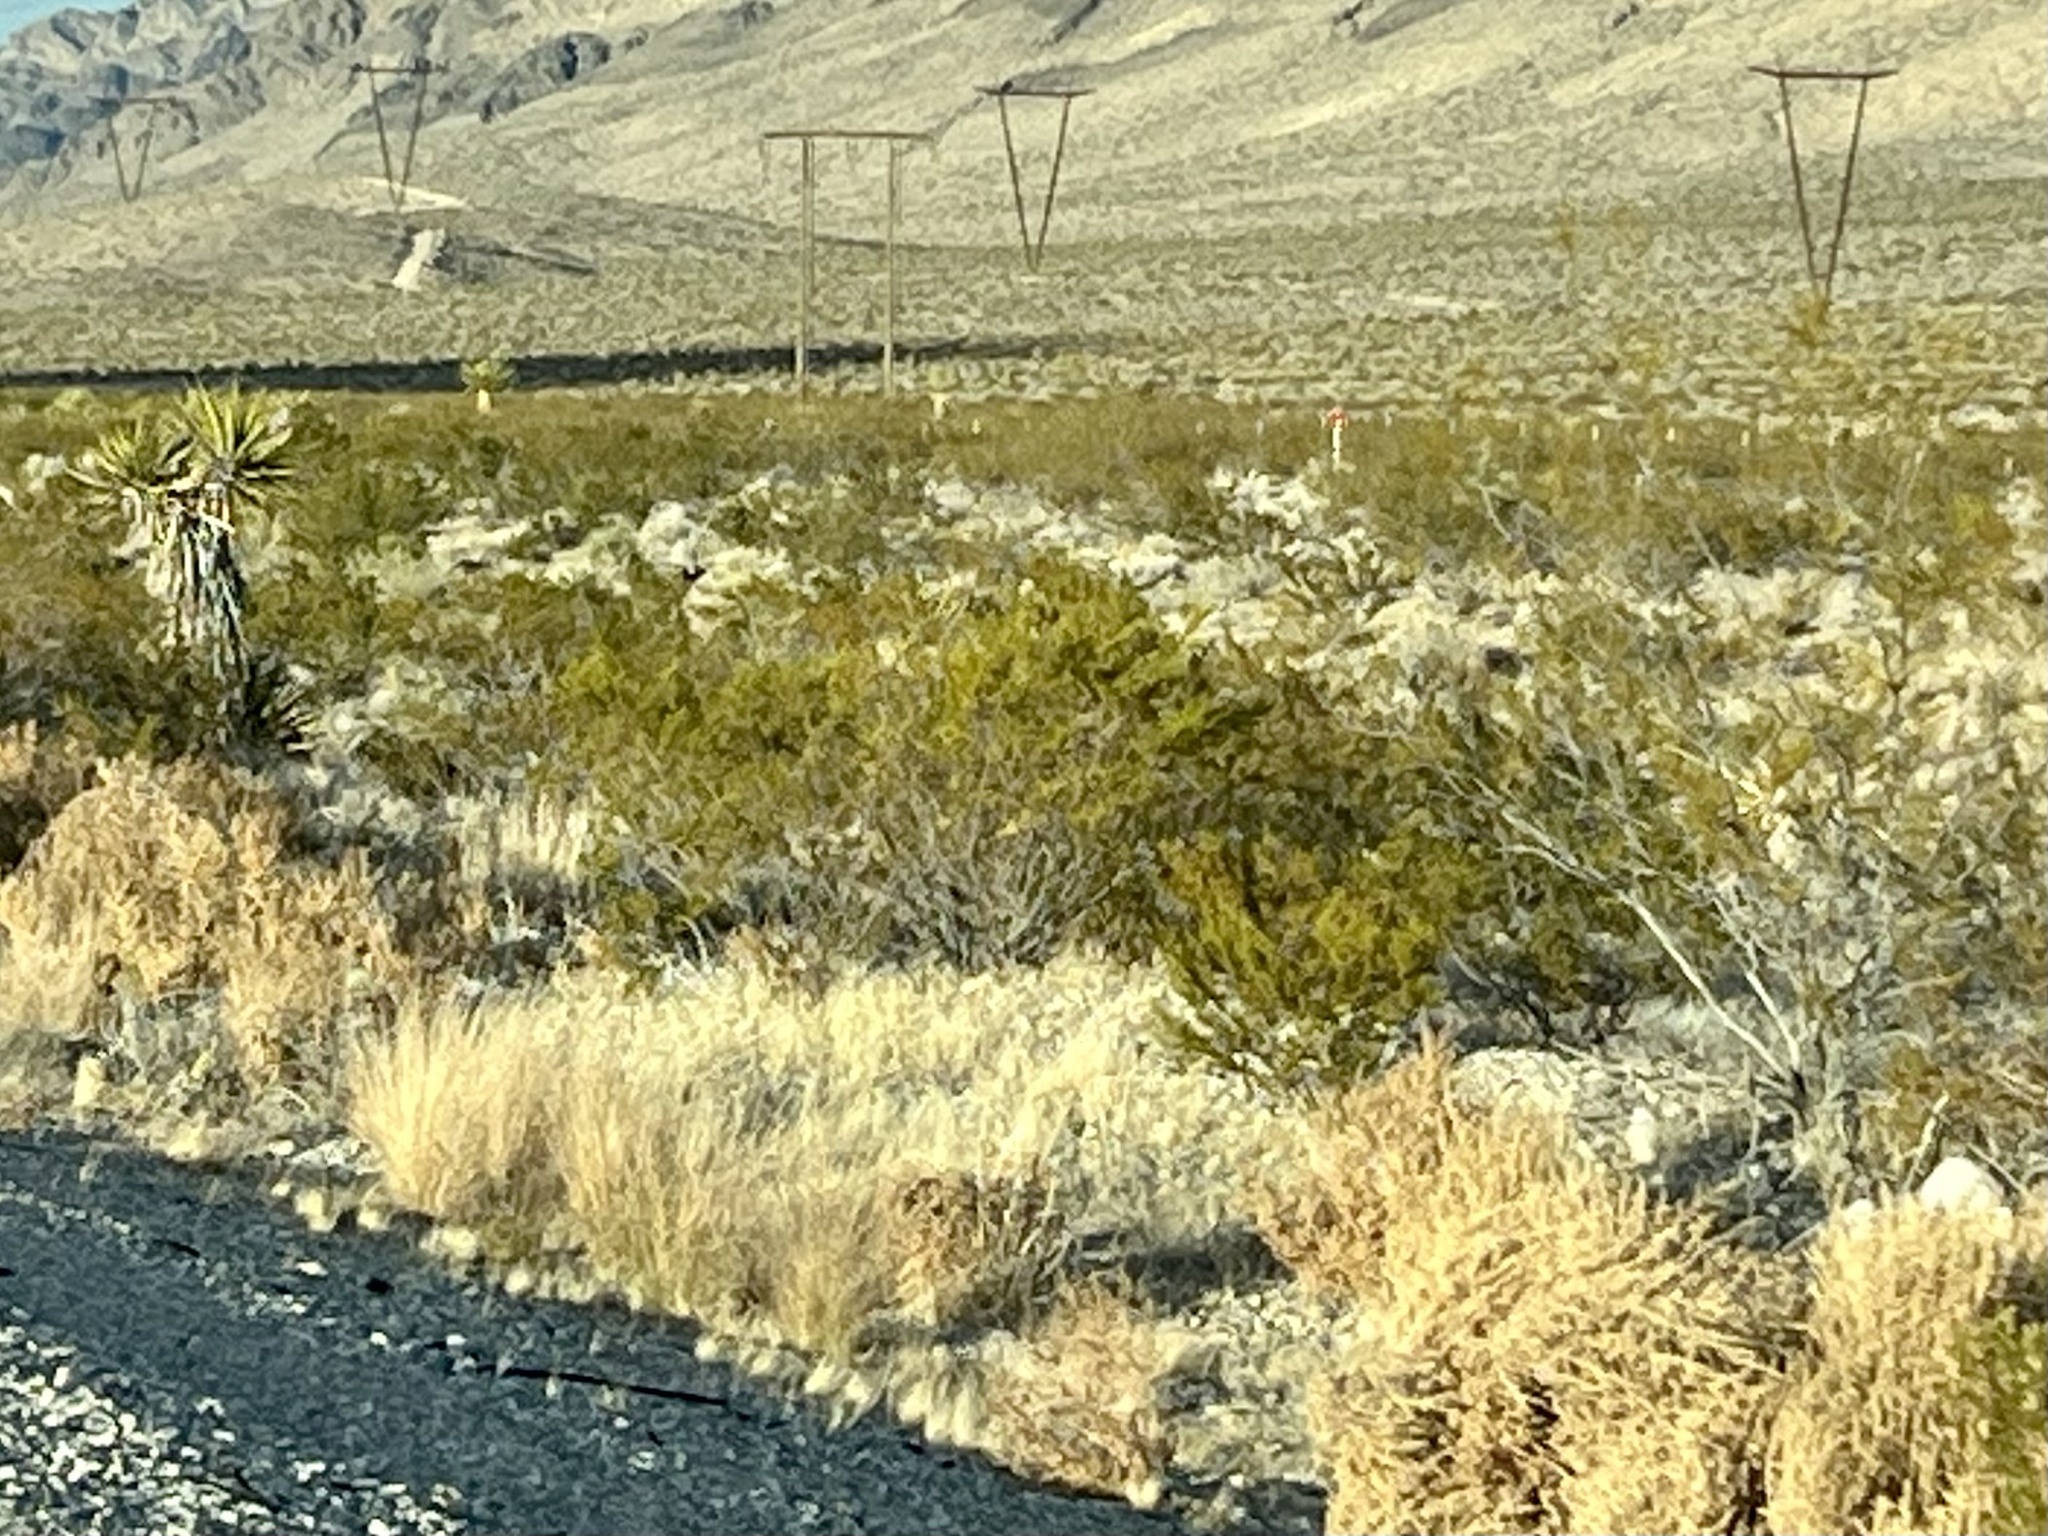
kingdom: Plantae
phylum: Tracheophyta
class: Magnoliopsida
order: Zygophyllales
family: Zygophyllaceae
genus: Larrea
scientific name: Larrea tridentata
